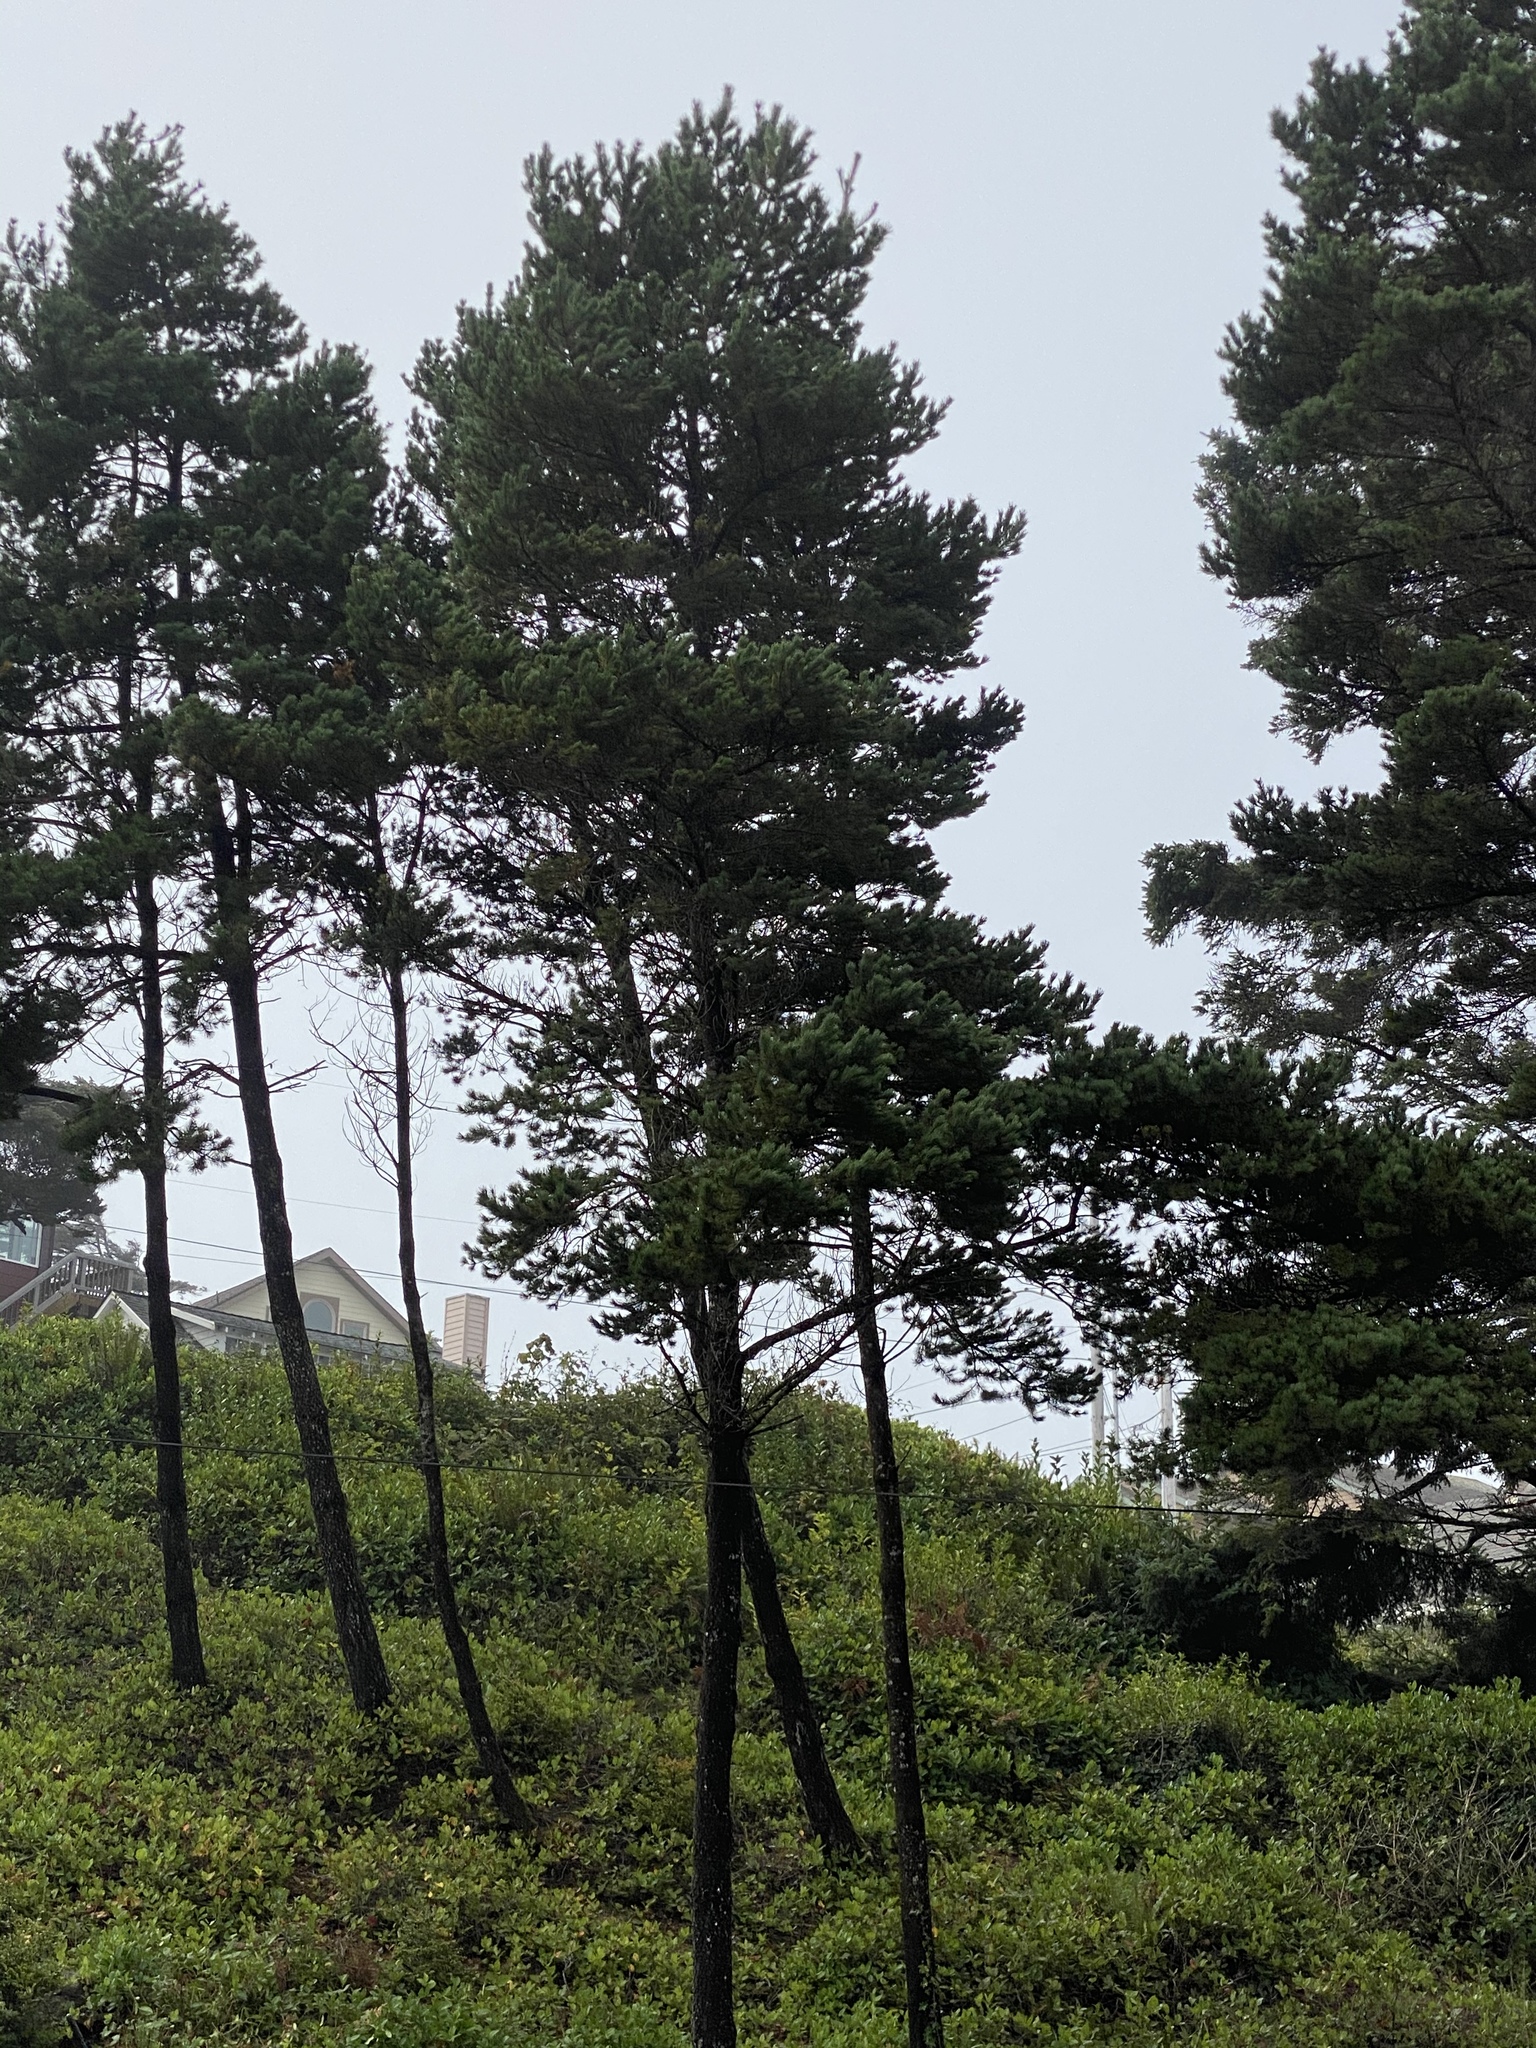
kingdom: Plantae
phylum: Tracheophyta
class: Pinopsida
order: Pinales
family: Pinaceae
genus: Pinus
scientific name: Pinus contorta
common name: Lodgepole pine
